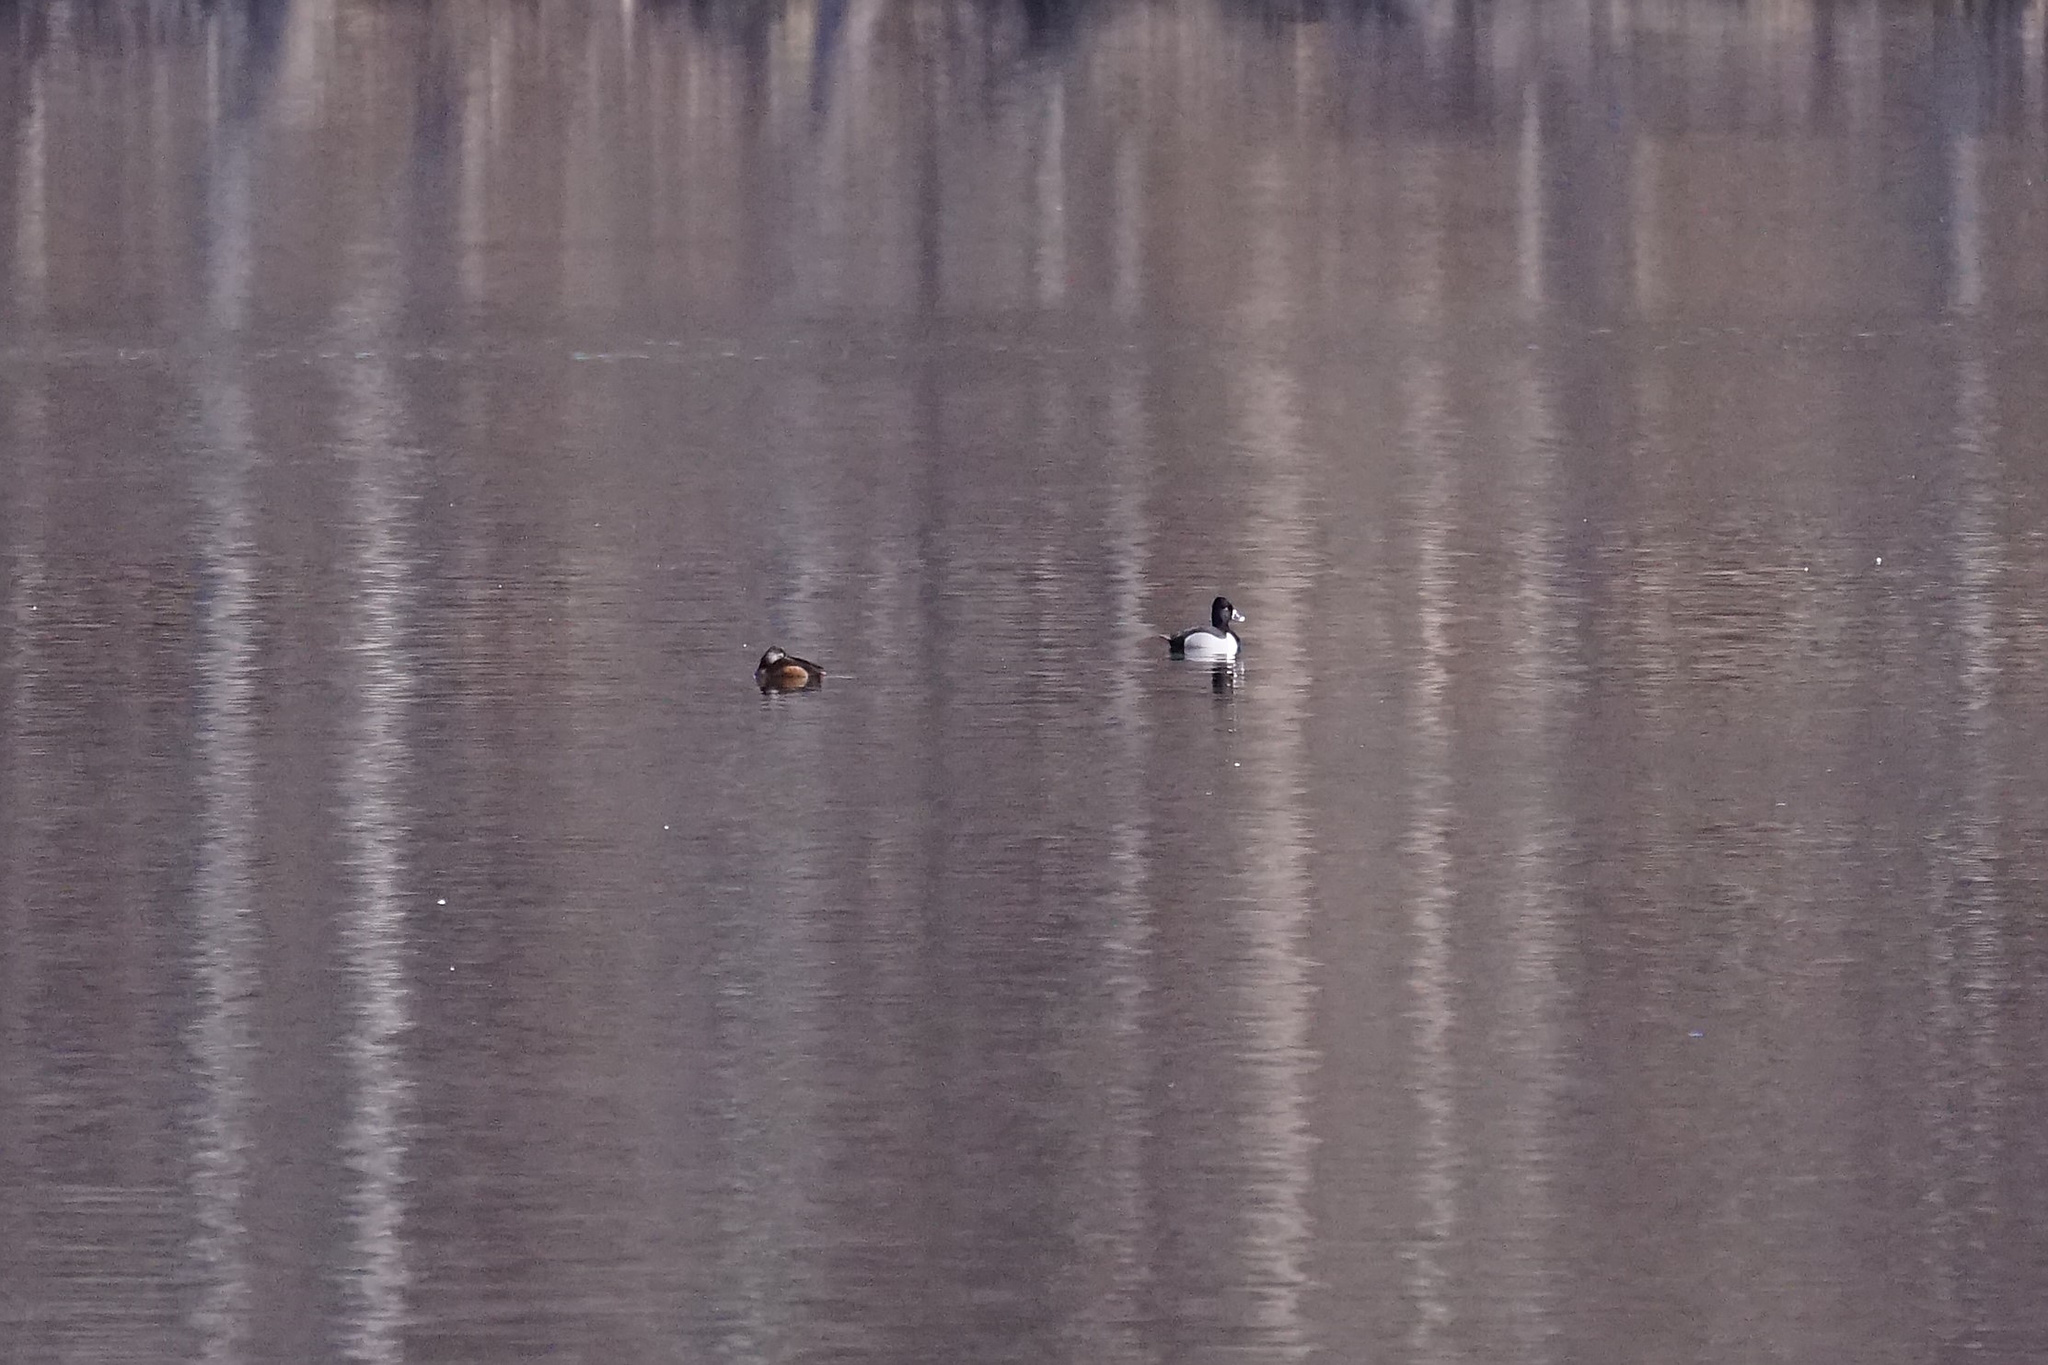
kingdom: Animalia
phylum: Chordata
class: Aves
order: Anseriformes
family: Anatidae
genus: Aythya
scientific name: Aythya collaris
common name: Ring-necked duck
